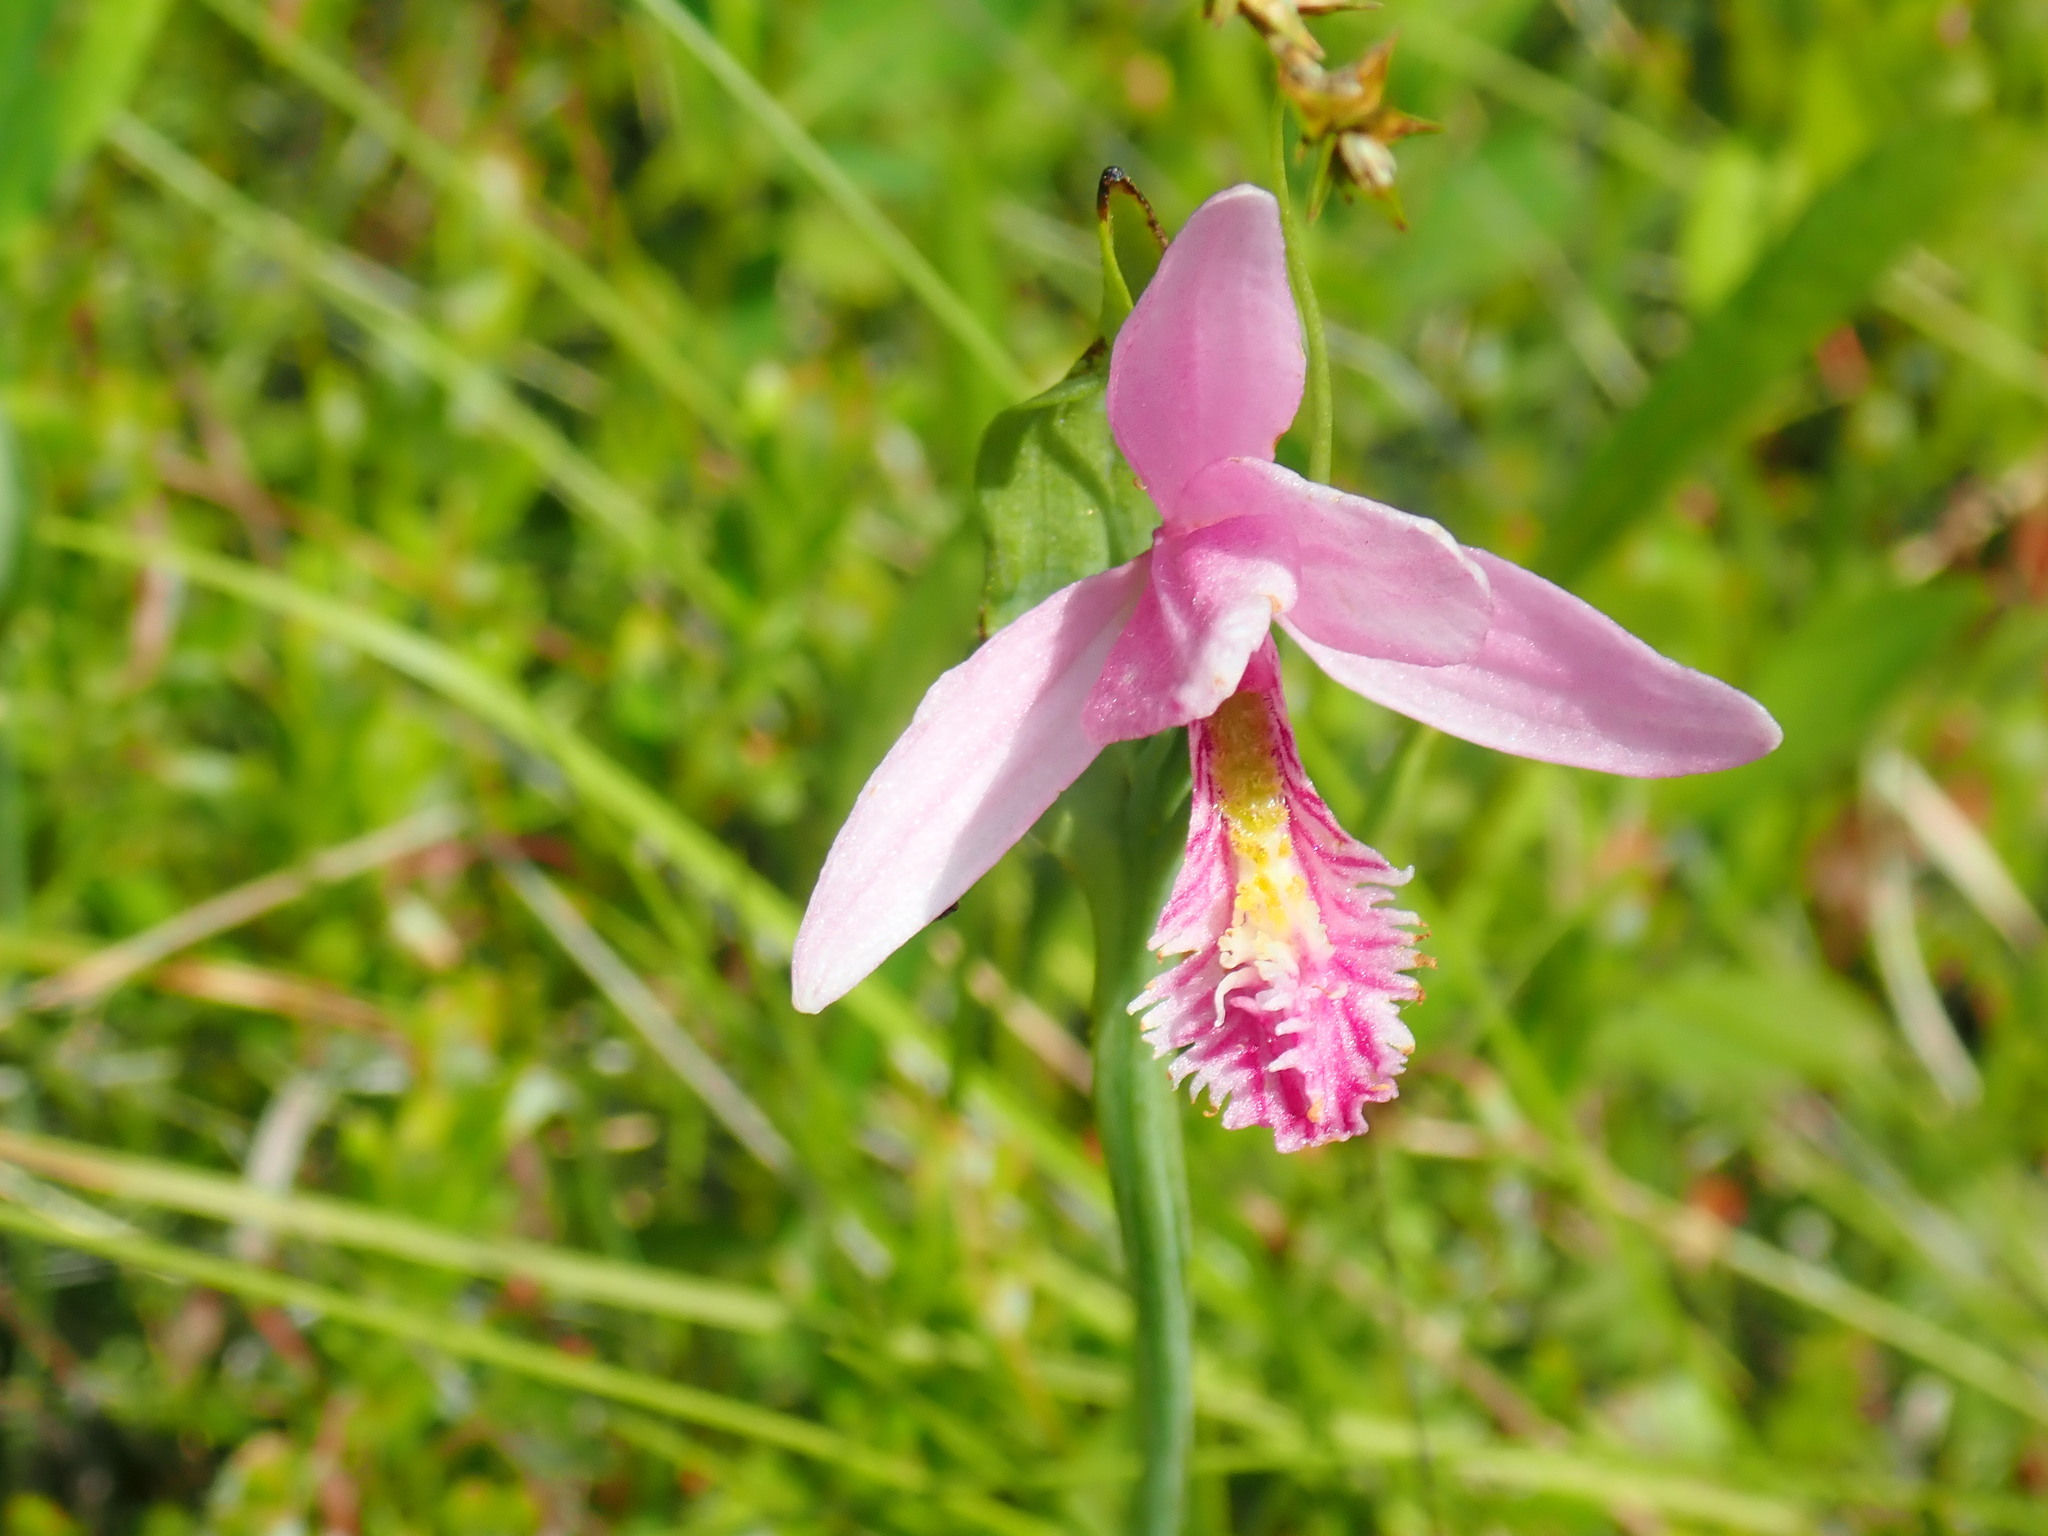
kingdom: Plantae
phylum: Tracheophyta
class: Liliopsida
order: Asparagales
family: Orchidaceae
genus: Pogonia
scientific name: Pogonia ophioglossoides
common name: Rose pogonia
